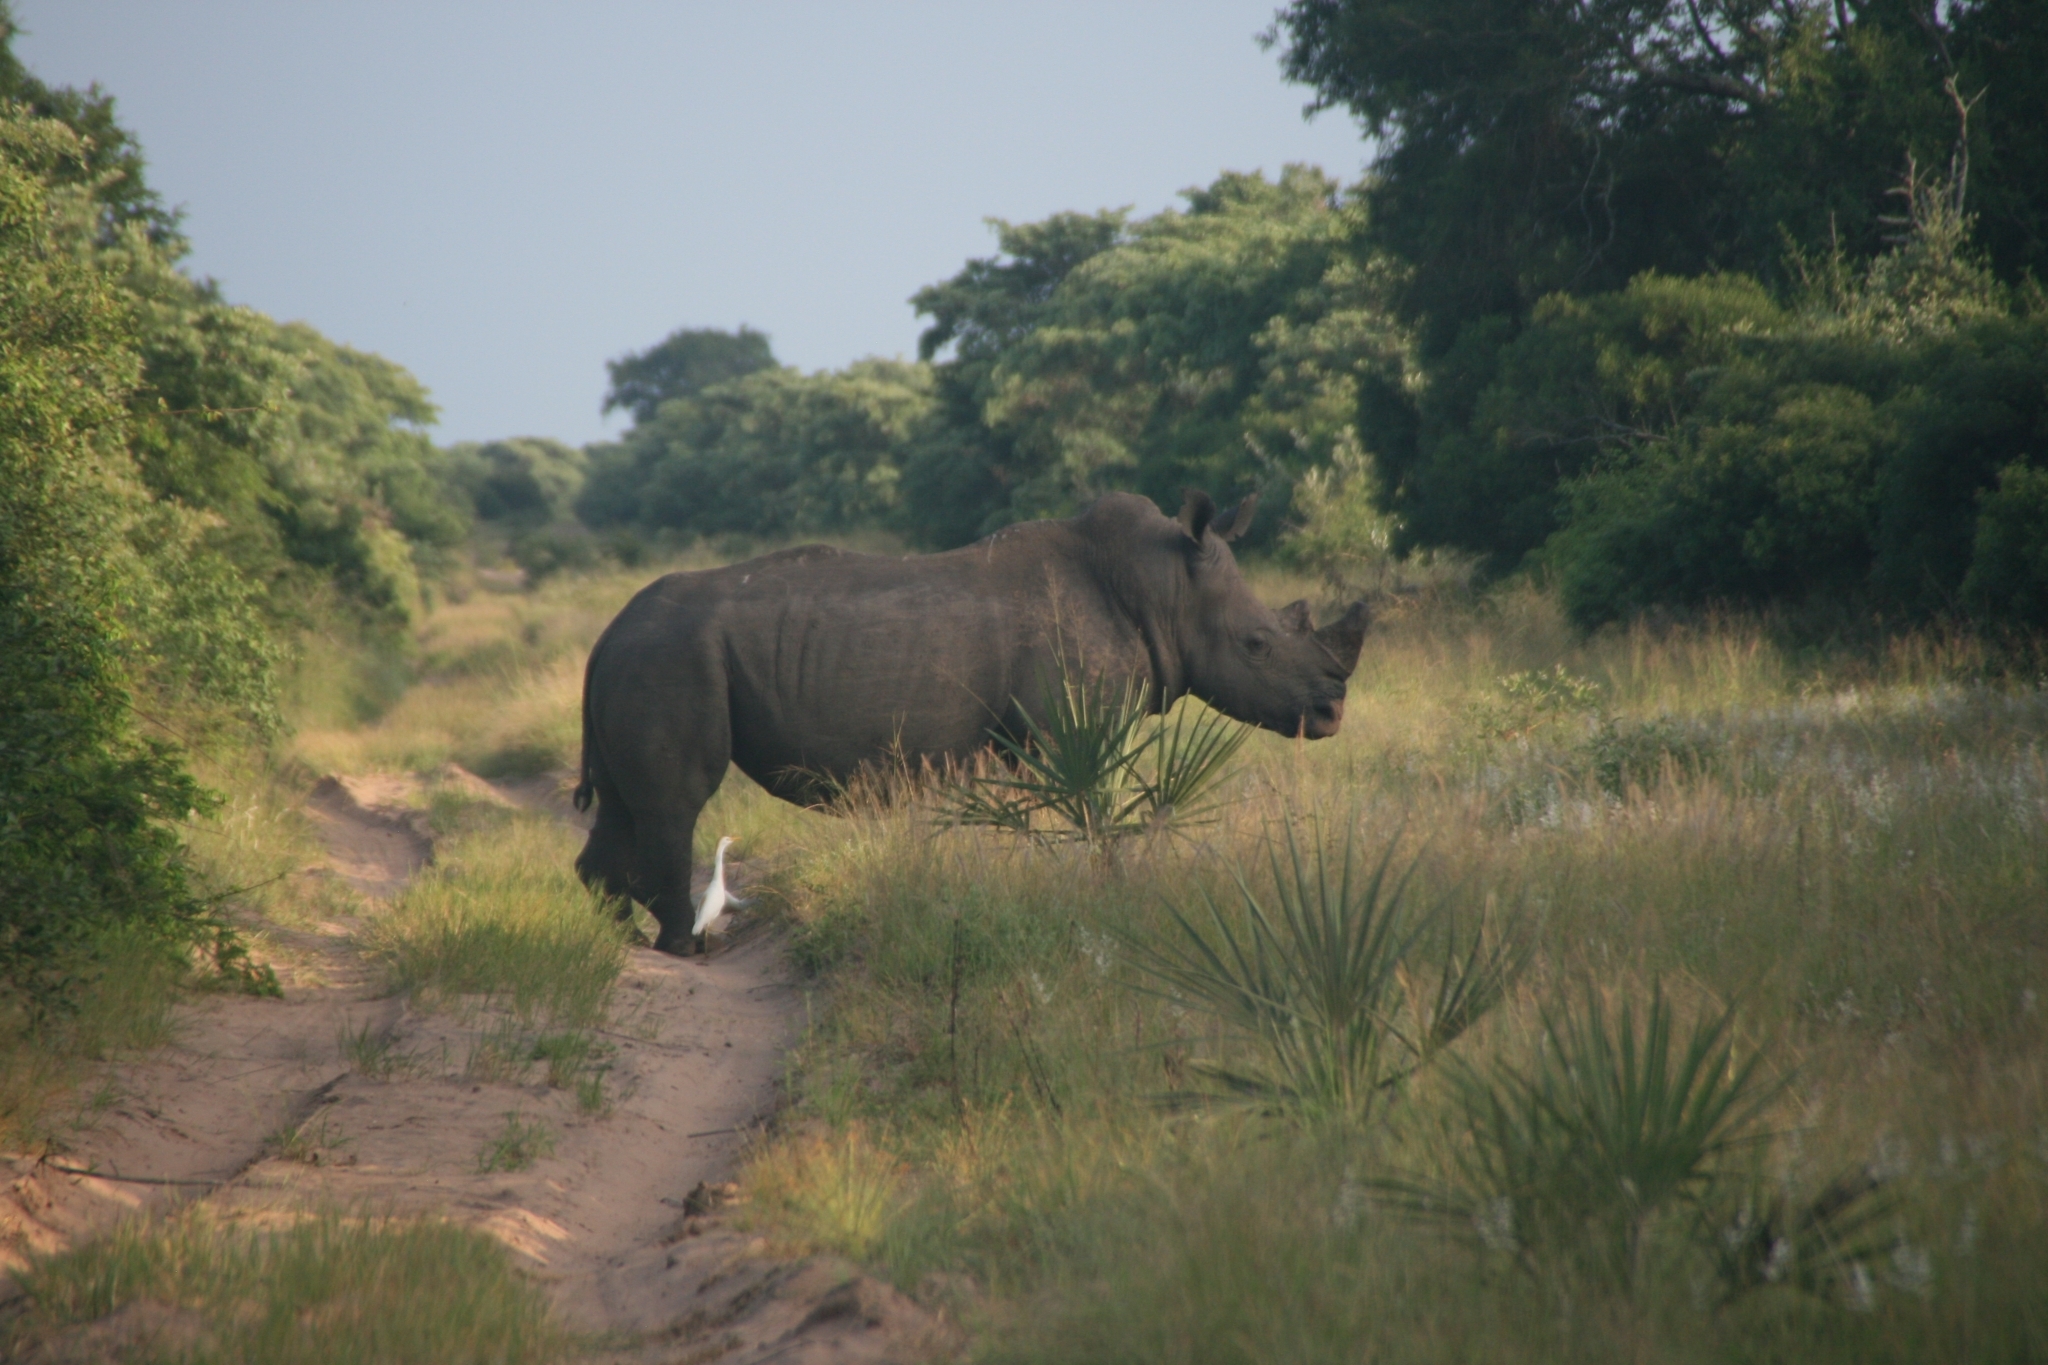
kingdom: Animalia
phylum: Chordata
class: Mammalia
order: Perissodactyla
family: Rhinocerotidae
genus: Ceratotherium
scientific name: Ceratotherium simum
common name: White rhinoceros
